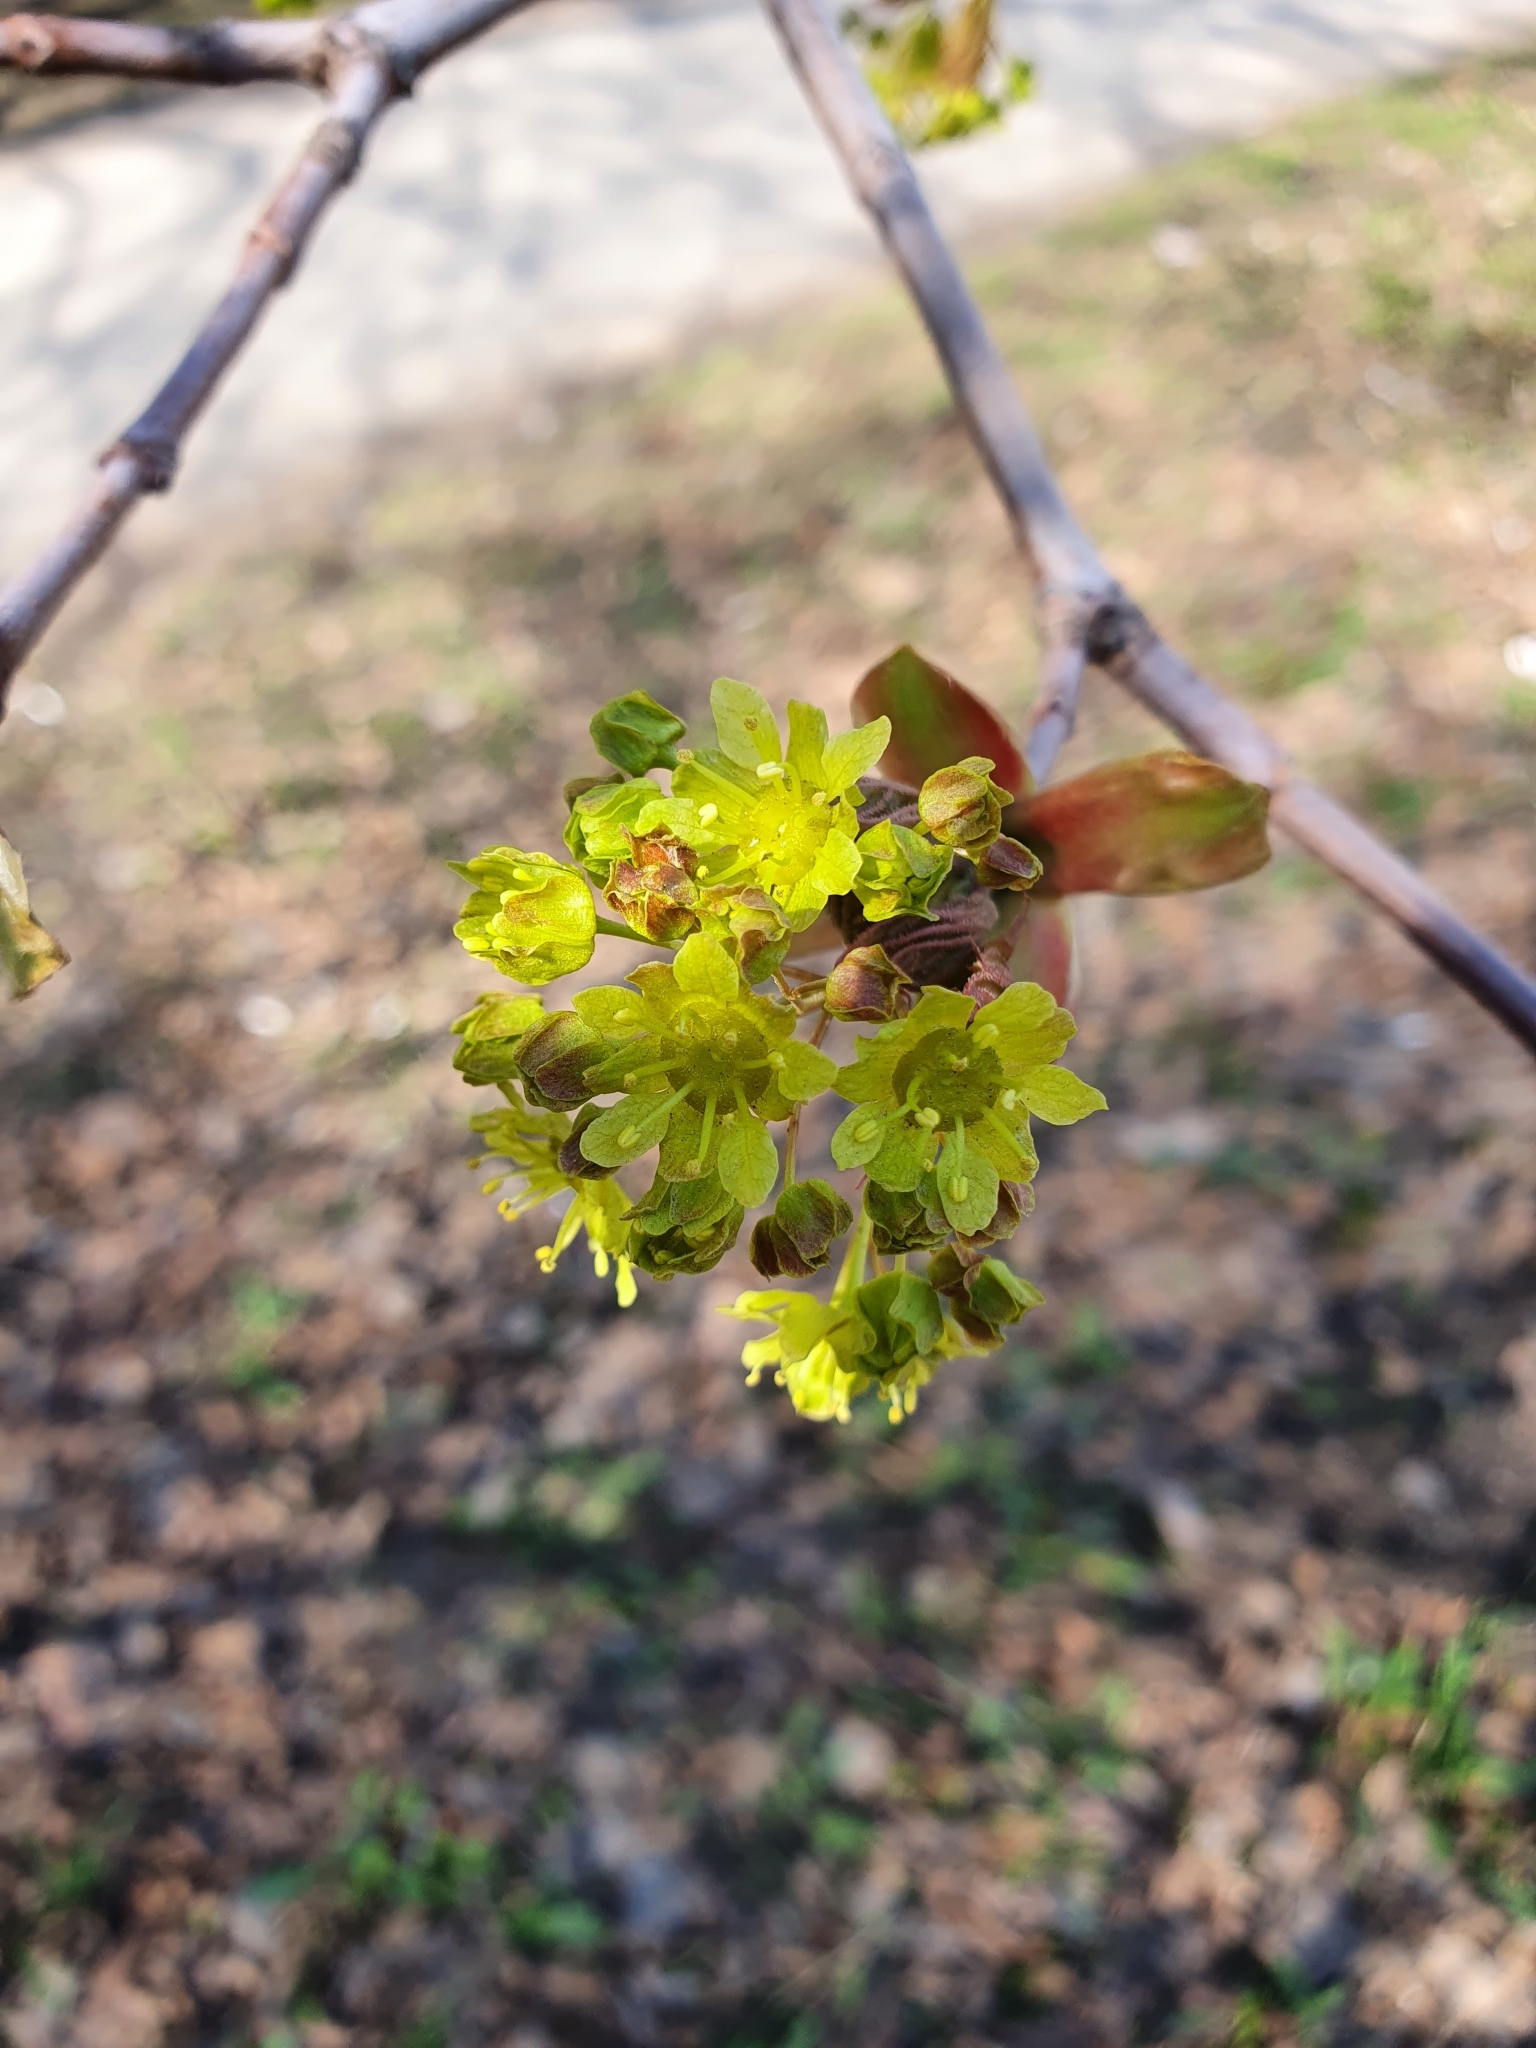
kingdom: Plantae
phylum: Tracheophyta
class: Magnoliopsida
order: Sapindales
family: Sapindaceae
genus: Acer
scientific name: Acer platanoides
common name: Norway maple
